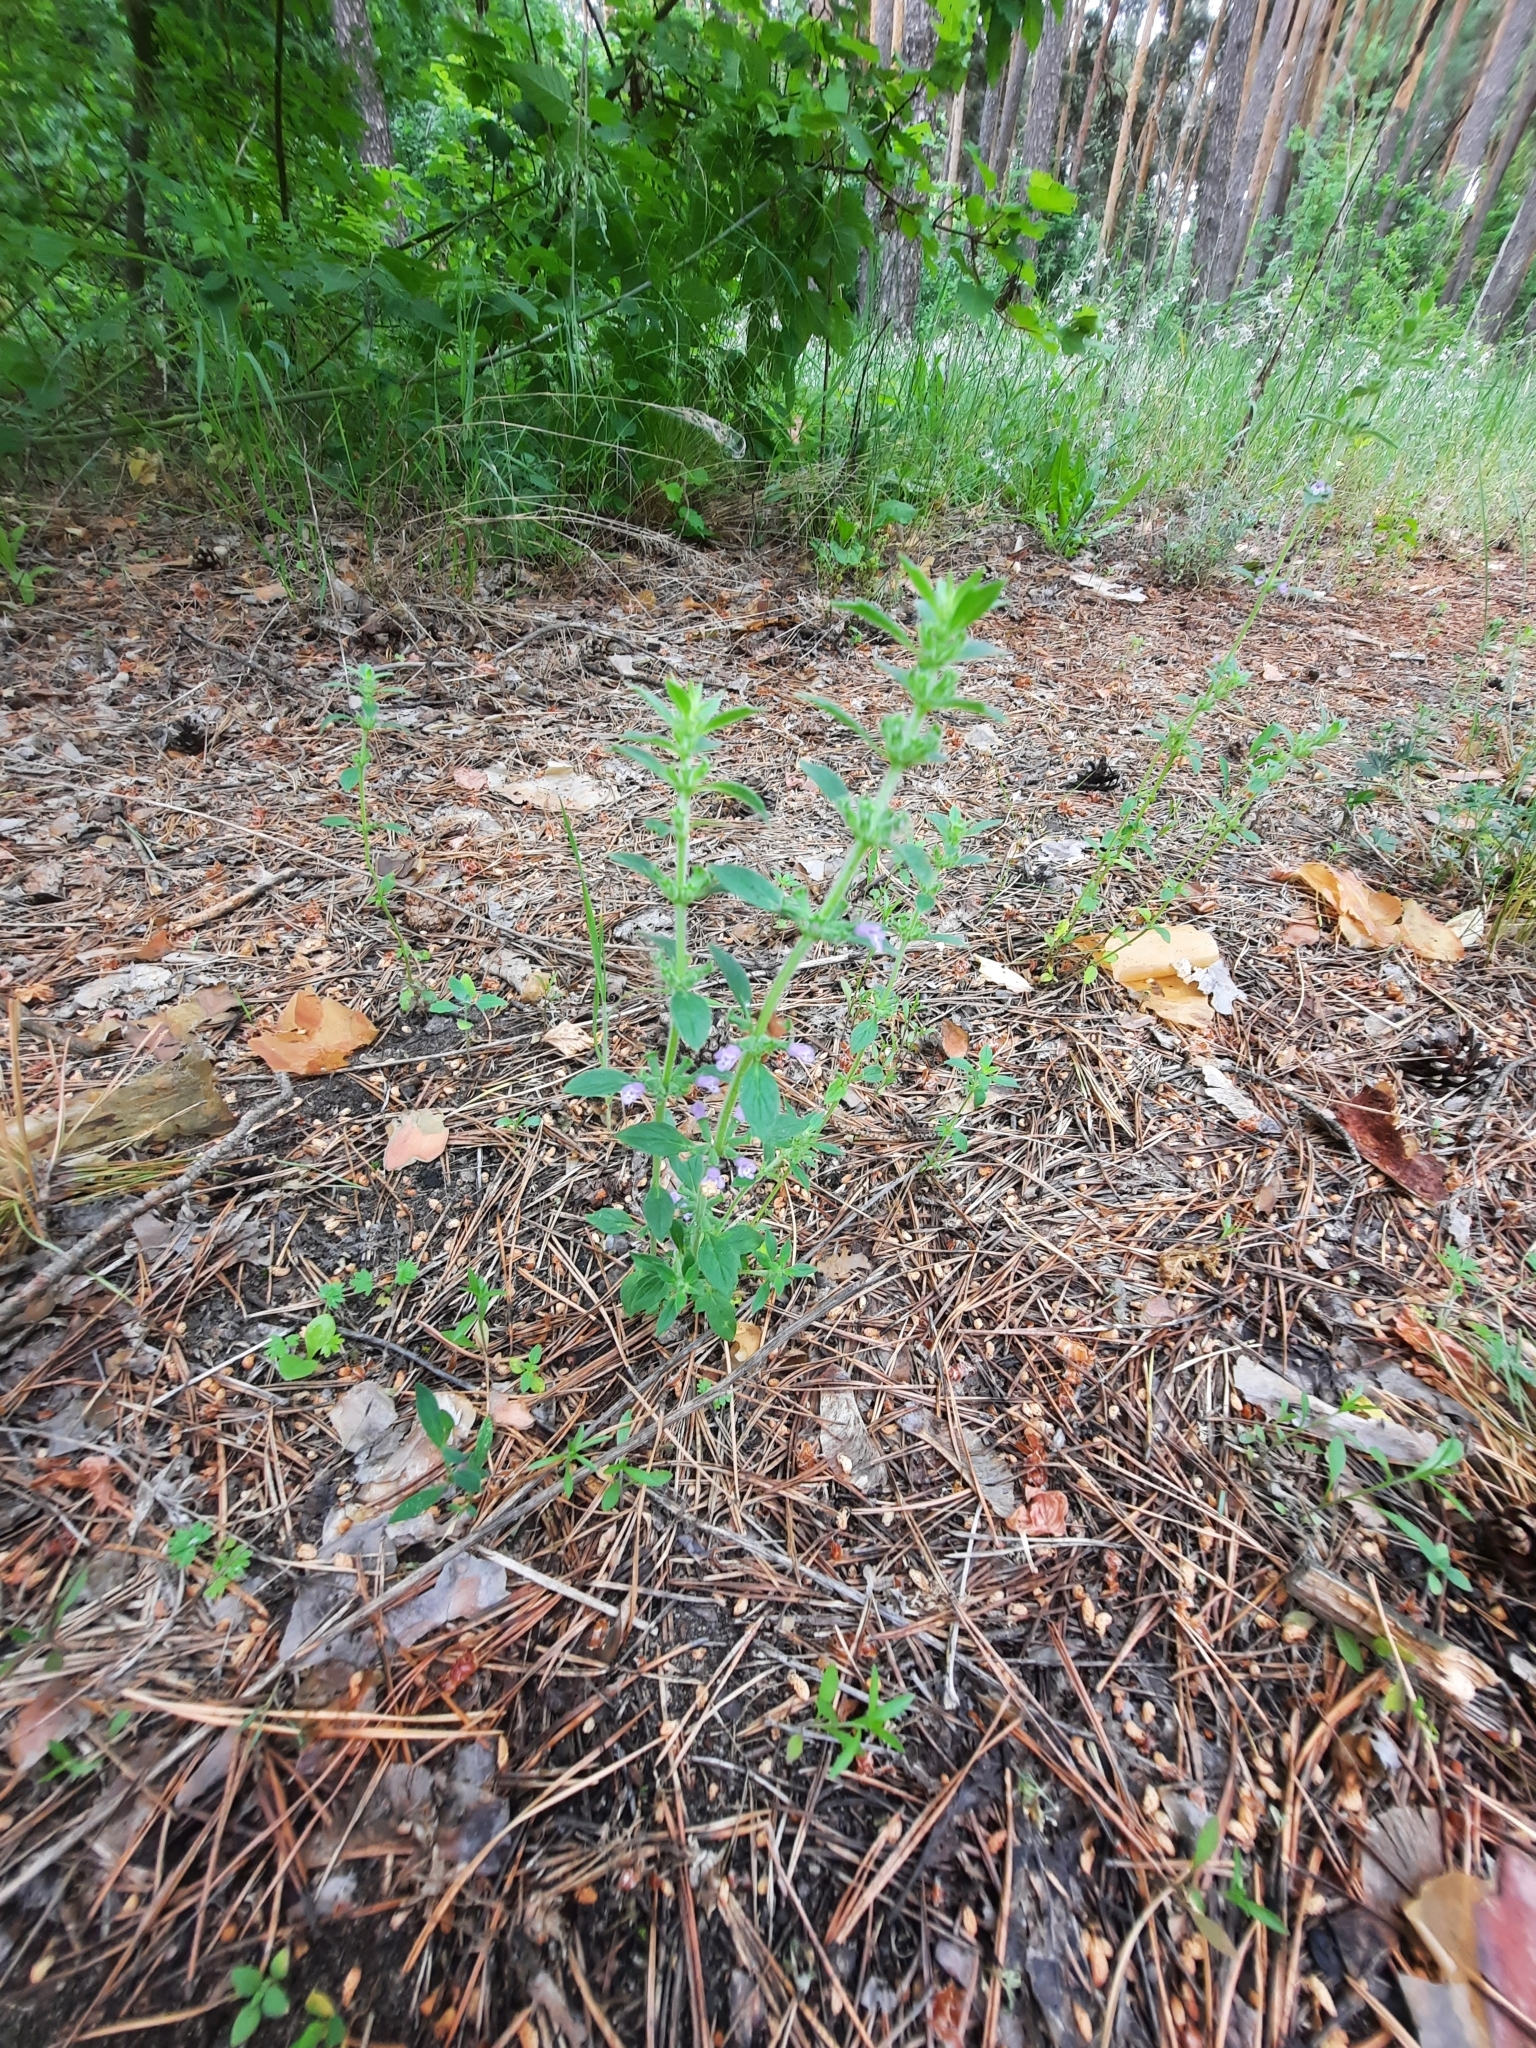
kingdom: Plantae
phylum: Tracheophyta
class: Magnoliopsida
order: Lamiales
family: Lamiaceae
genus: Clinopodium
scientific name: Clinopodium acinos
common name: Basil thyme
